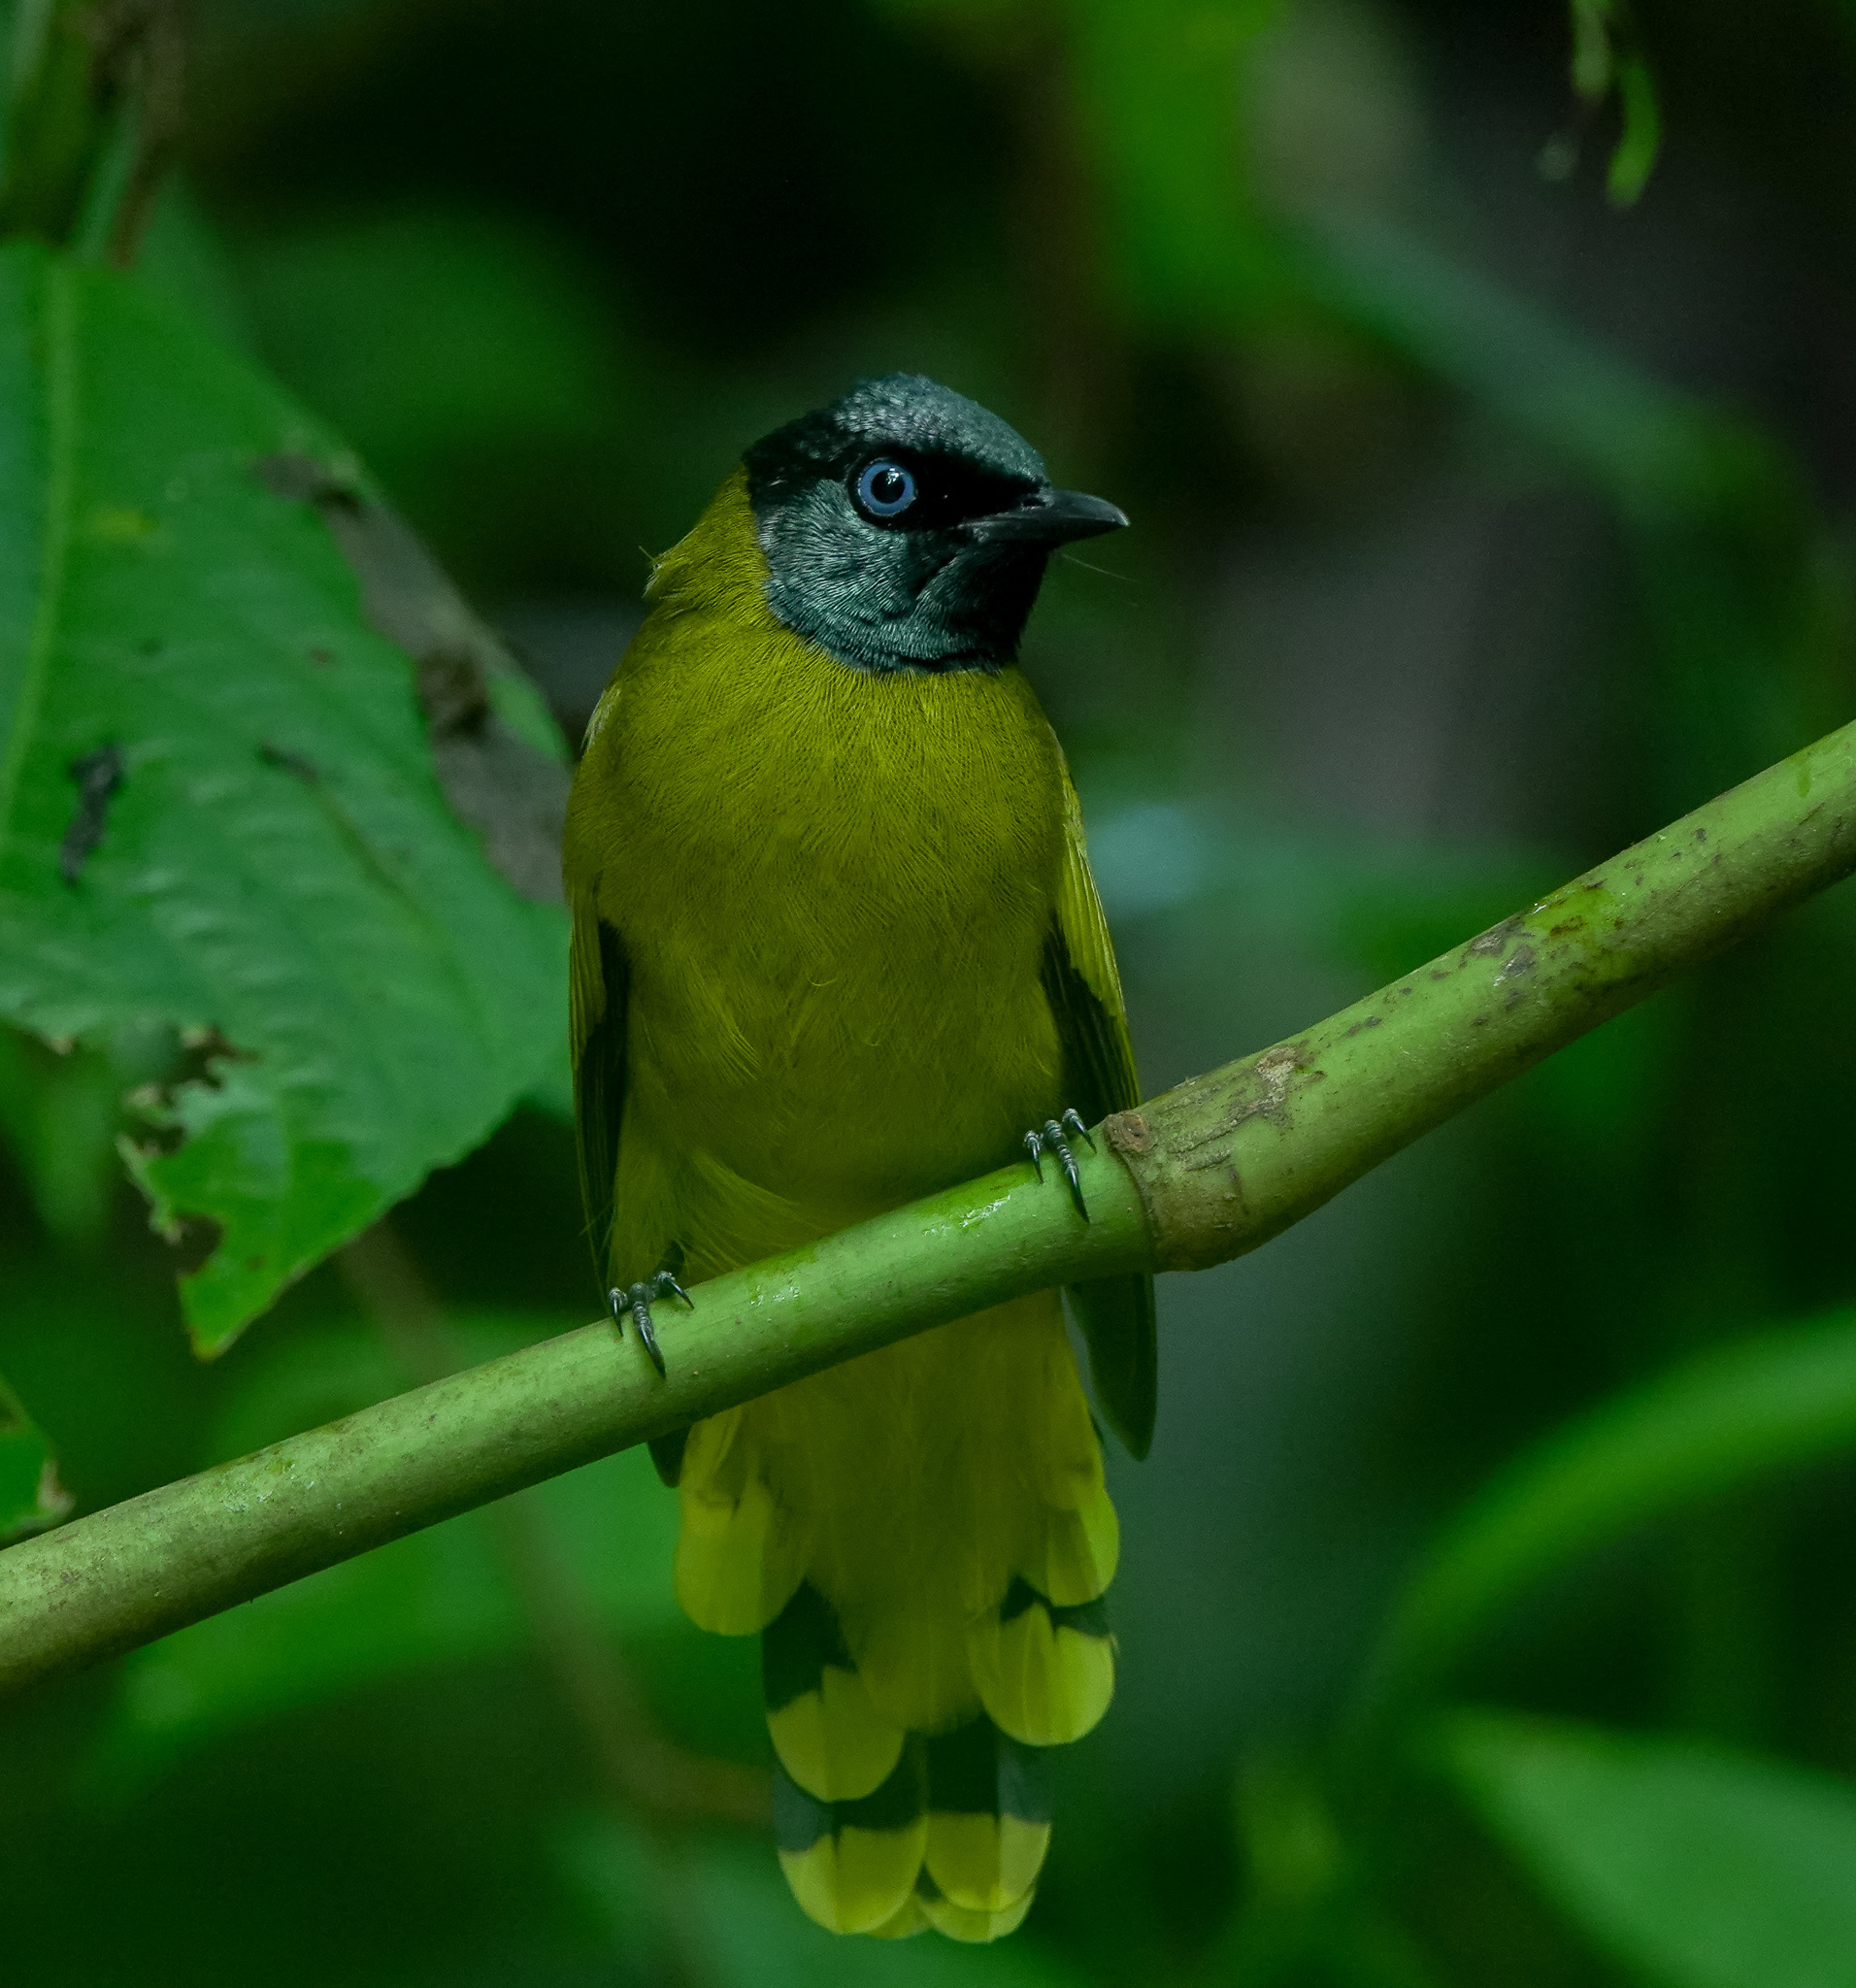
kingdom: Animalia
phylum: Chordata
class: Aves
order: Passeriformes
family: Pycnonotidae
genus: Microtarsus
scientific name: Microtarsus
